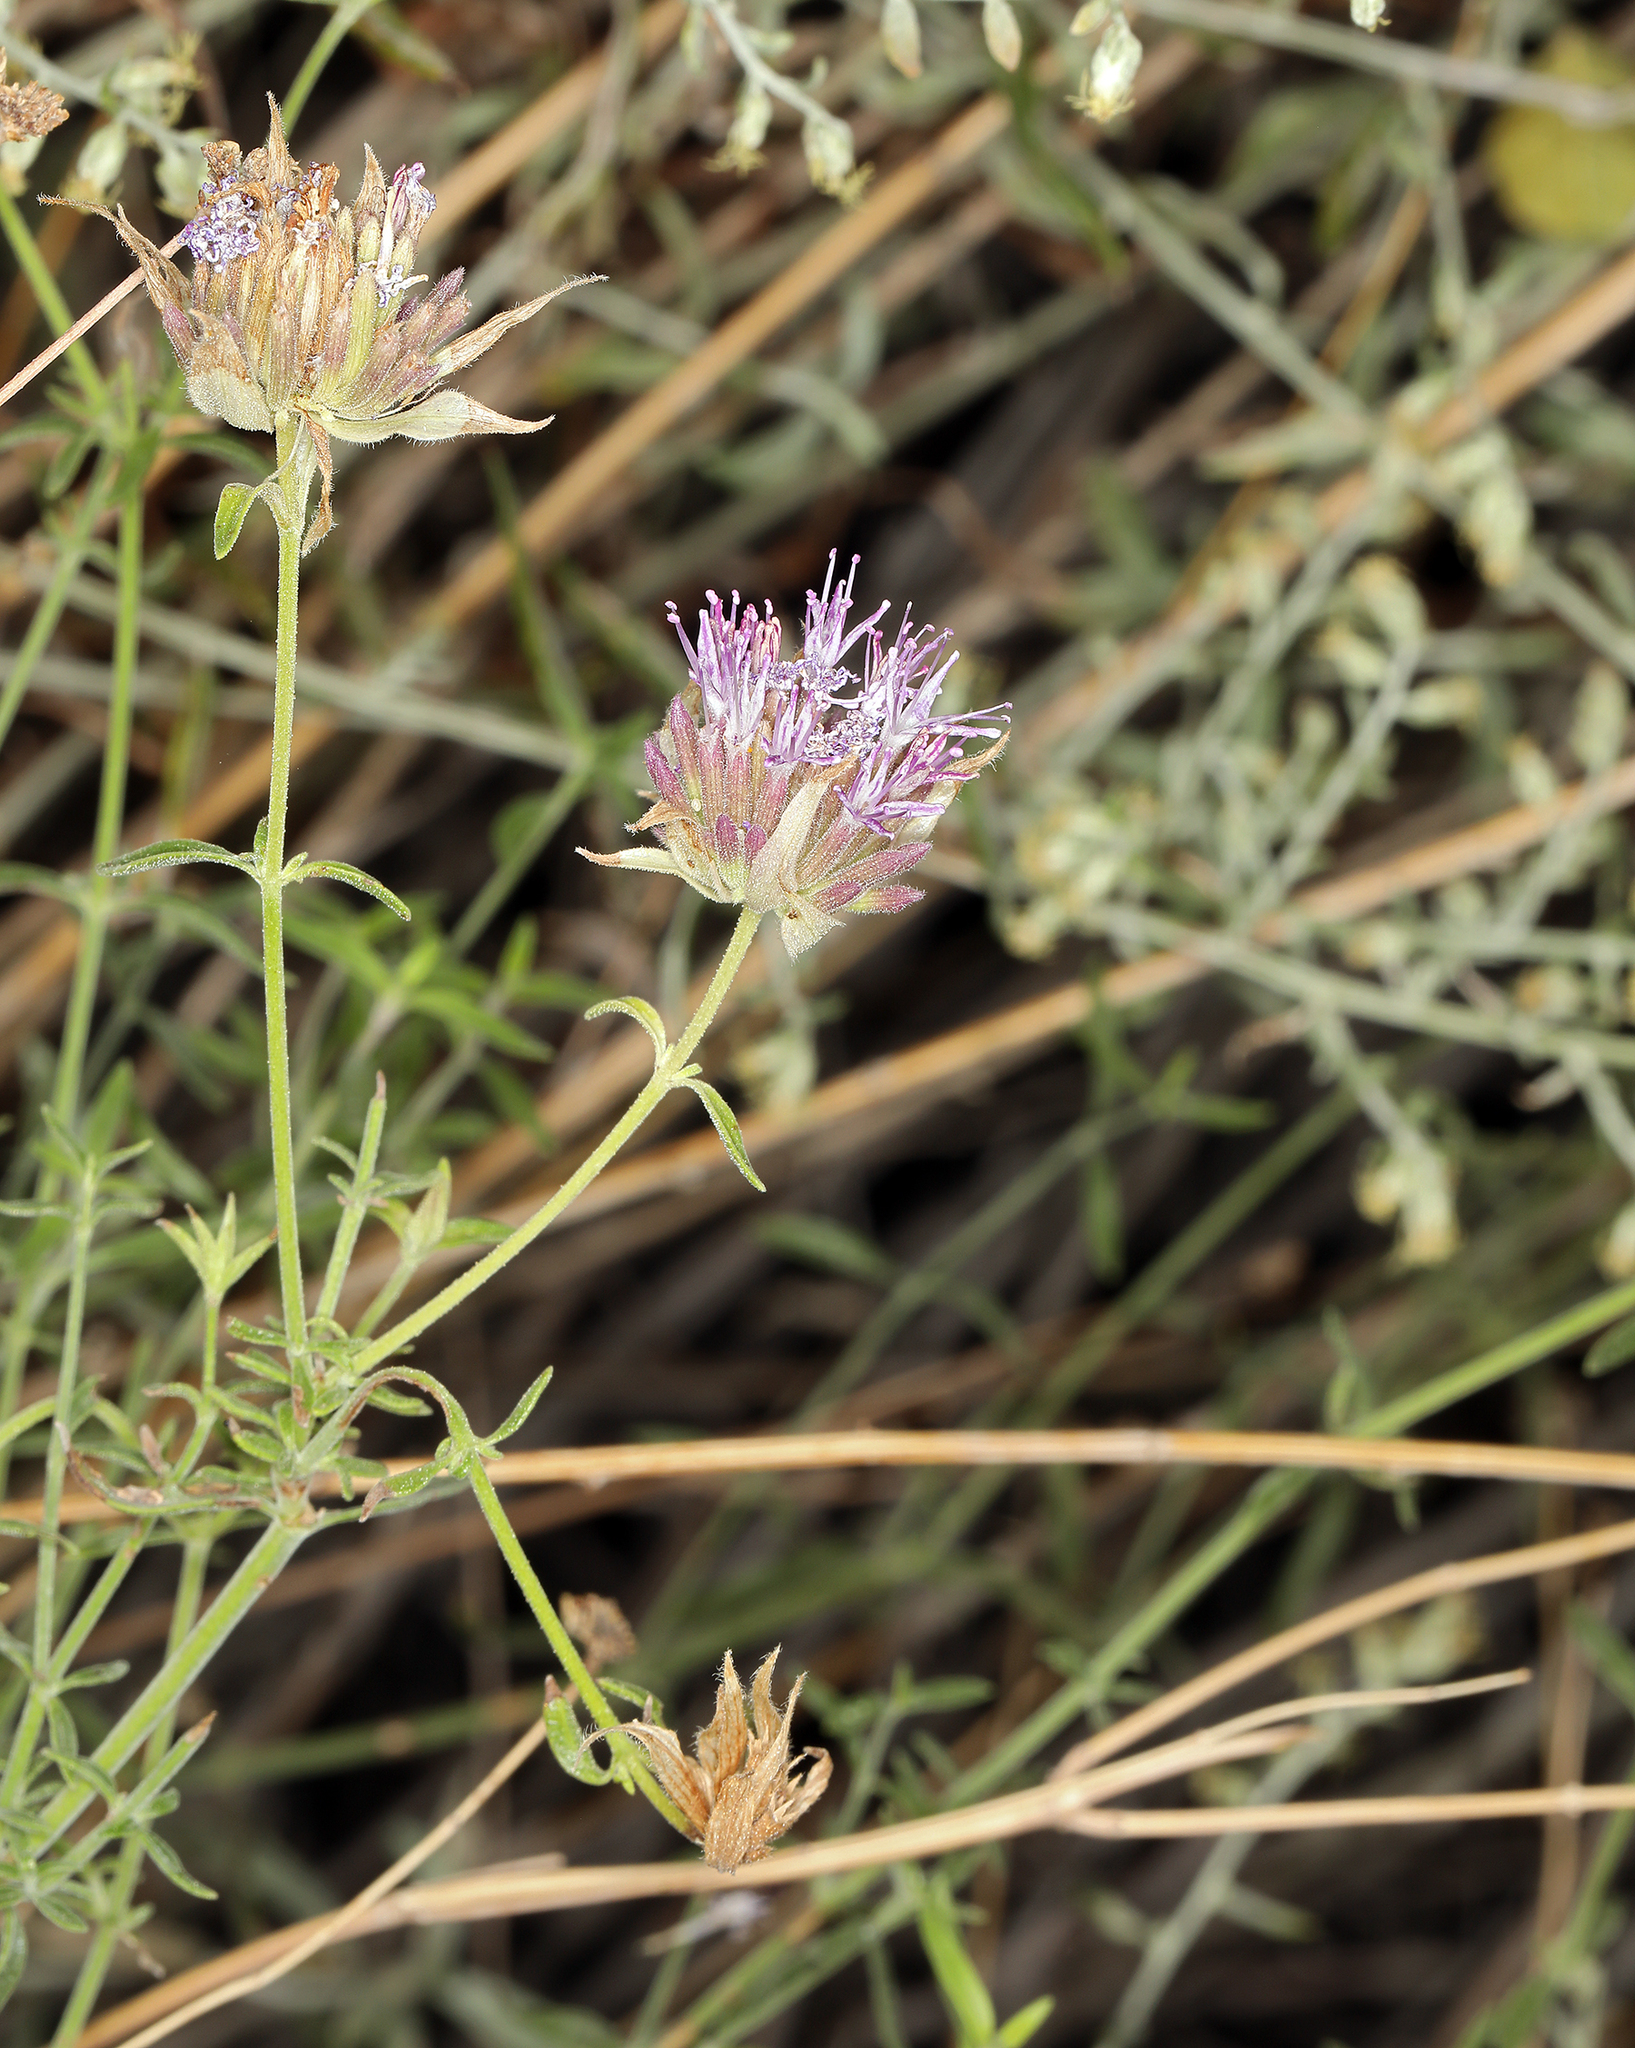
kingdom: Plantae
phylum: Tracheophyta
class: Magnoliopsida
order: Lamiales
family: Lamiaceae
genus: Monardella
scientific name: Monardella mojavensis
